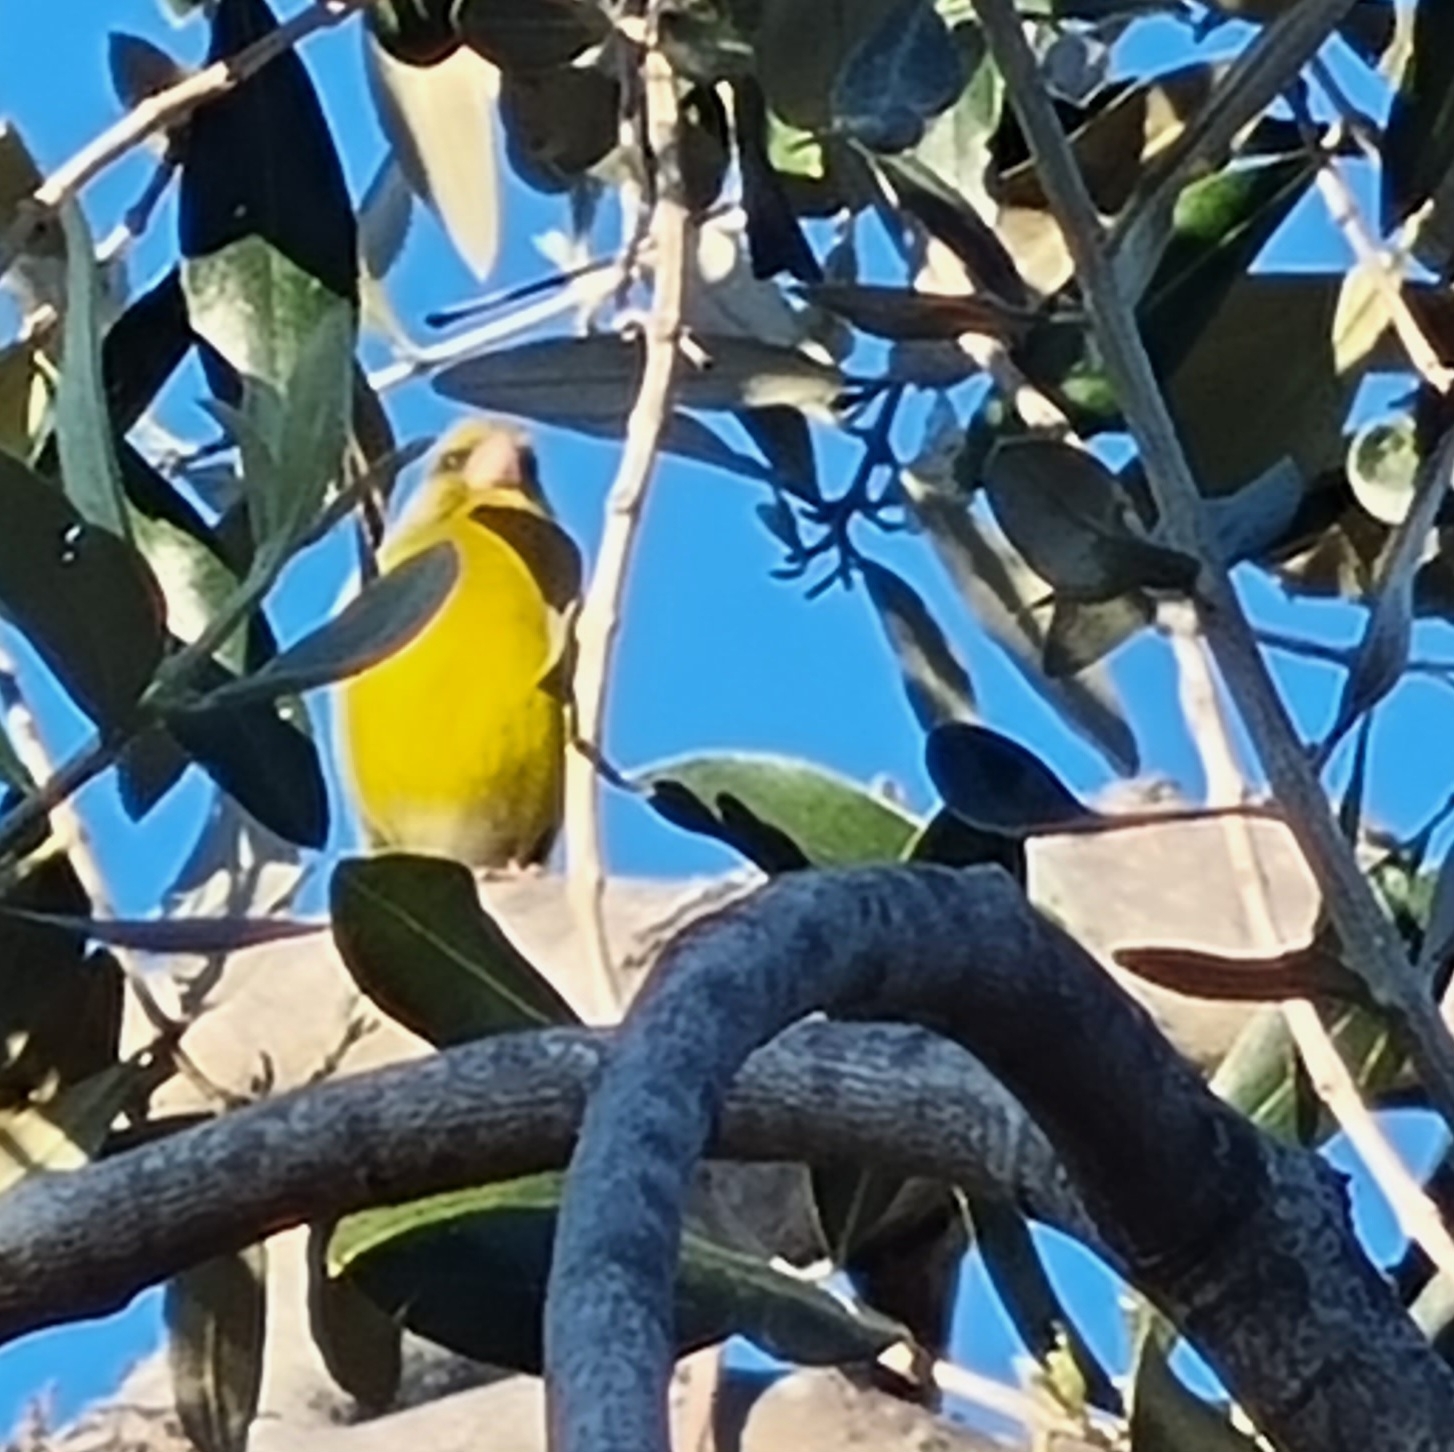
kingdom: Plantae
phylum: Tracheophyta
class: Liliopsida
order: Poales
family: Poaceae
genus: Chloris
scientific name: Chloris chloris
